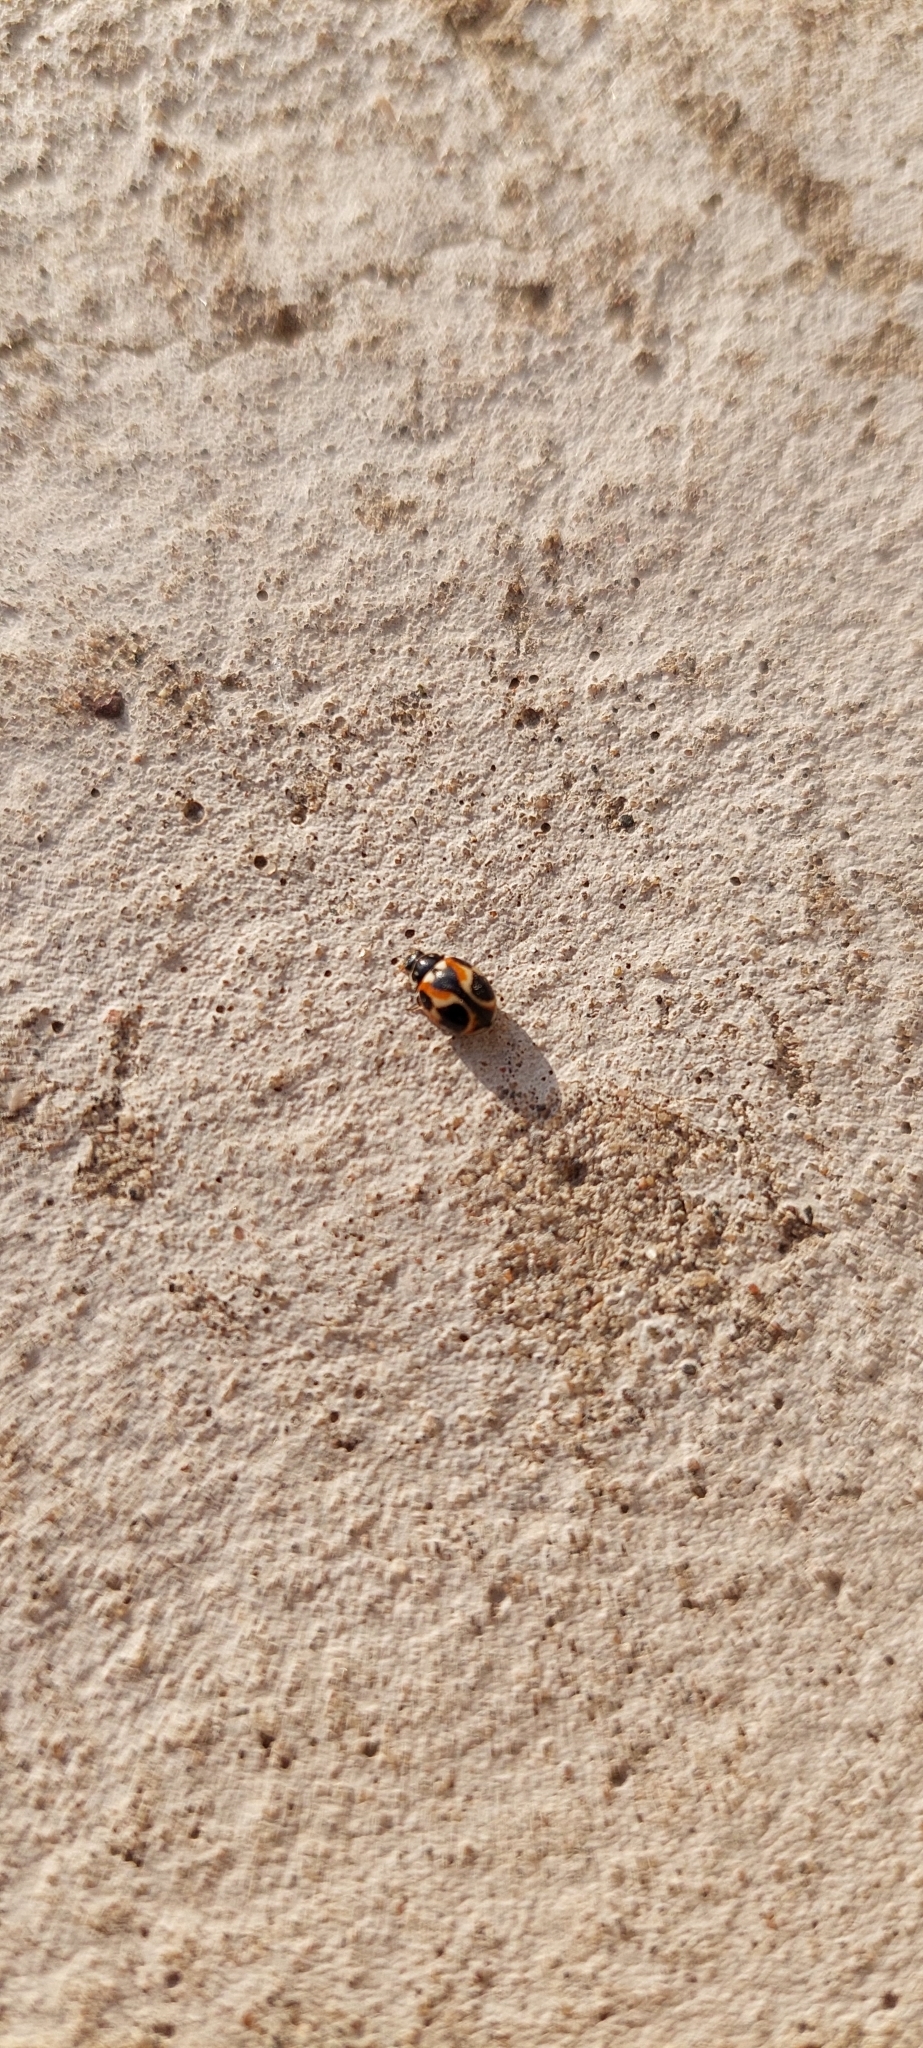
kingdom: Animalia
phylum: Arthropoda
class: Insecta
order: Coleoptera
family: Coccinellidae
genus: Cycloneda
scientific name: Cycloneda ancoralis
